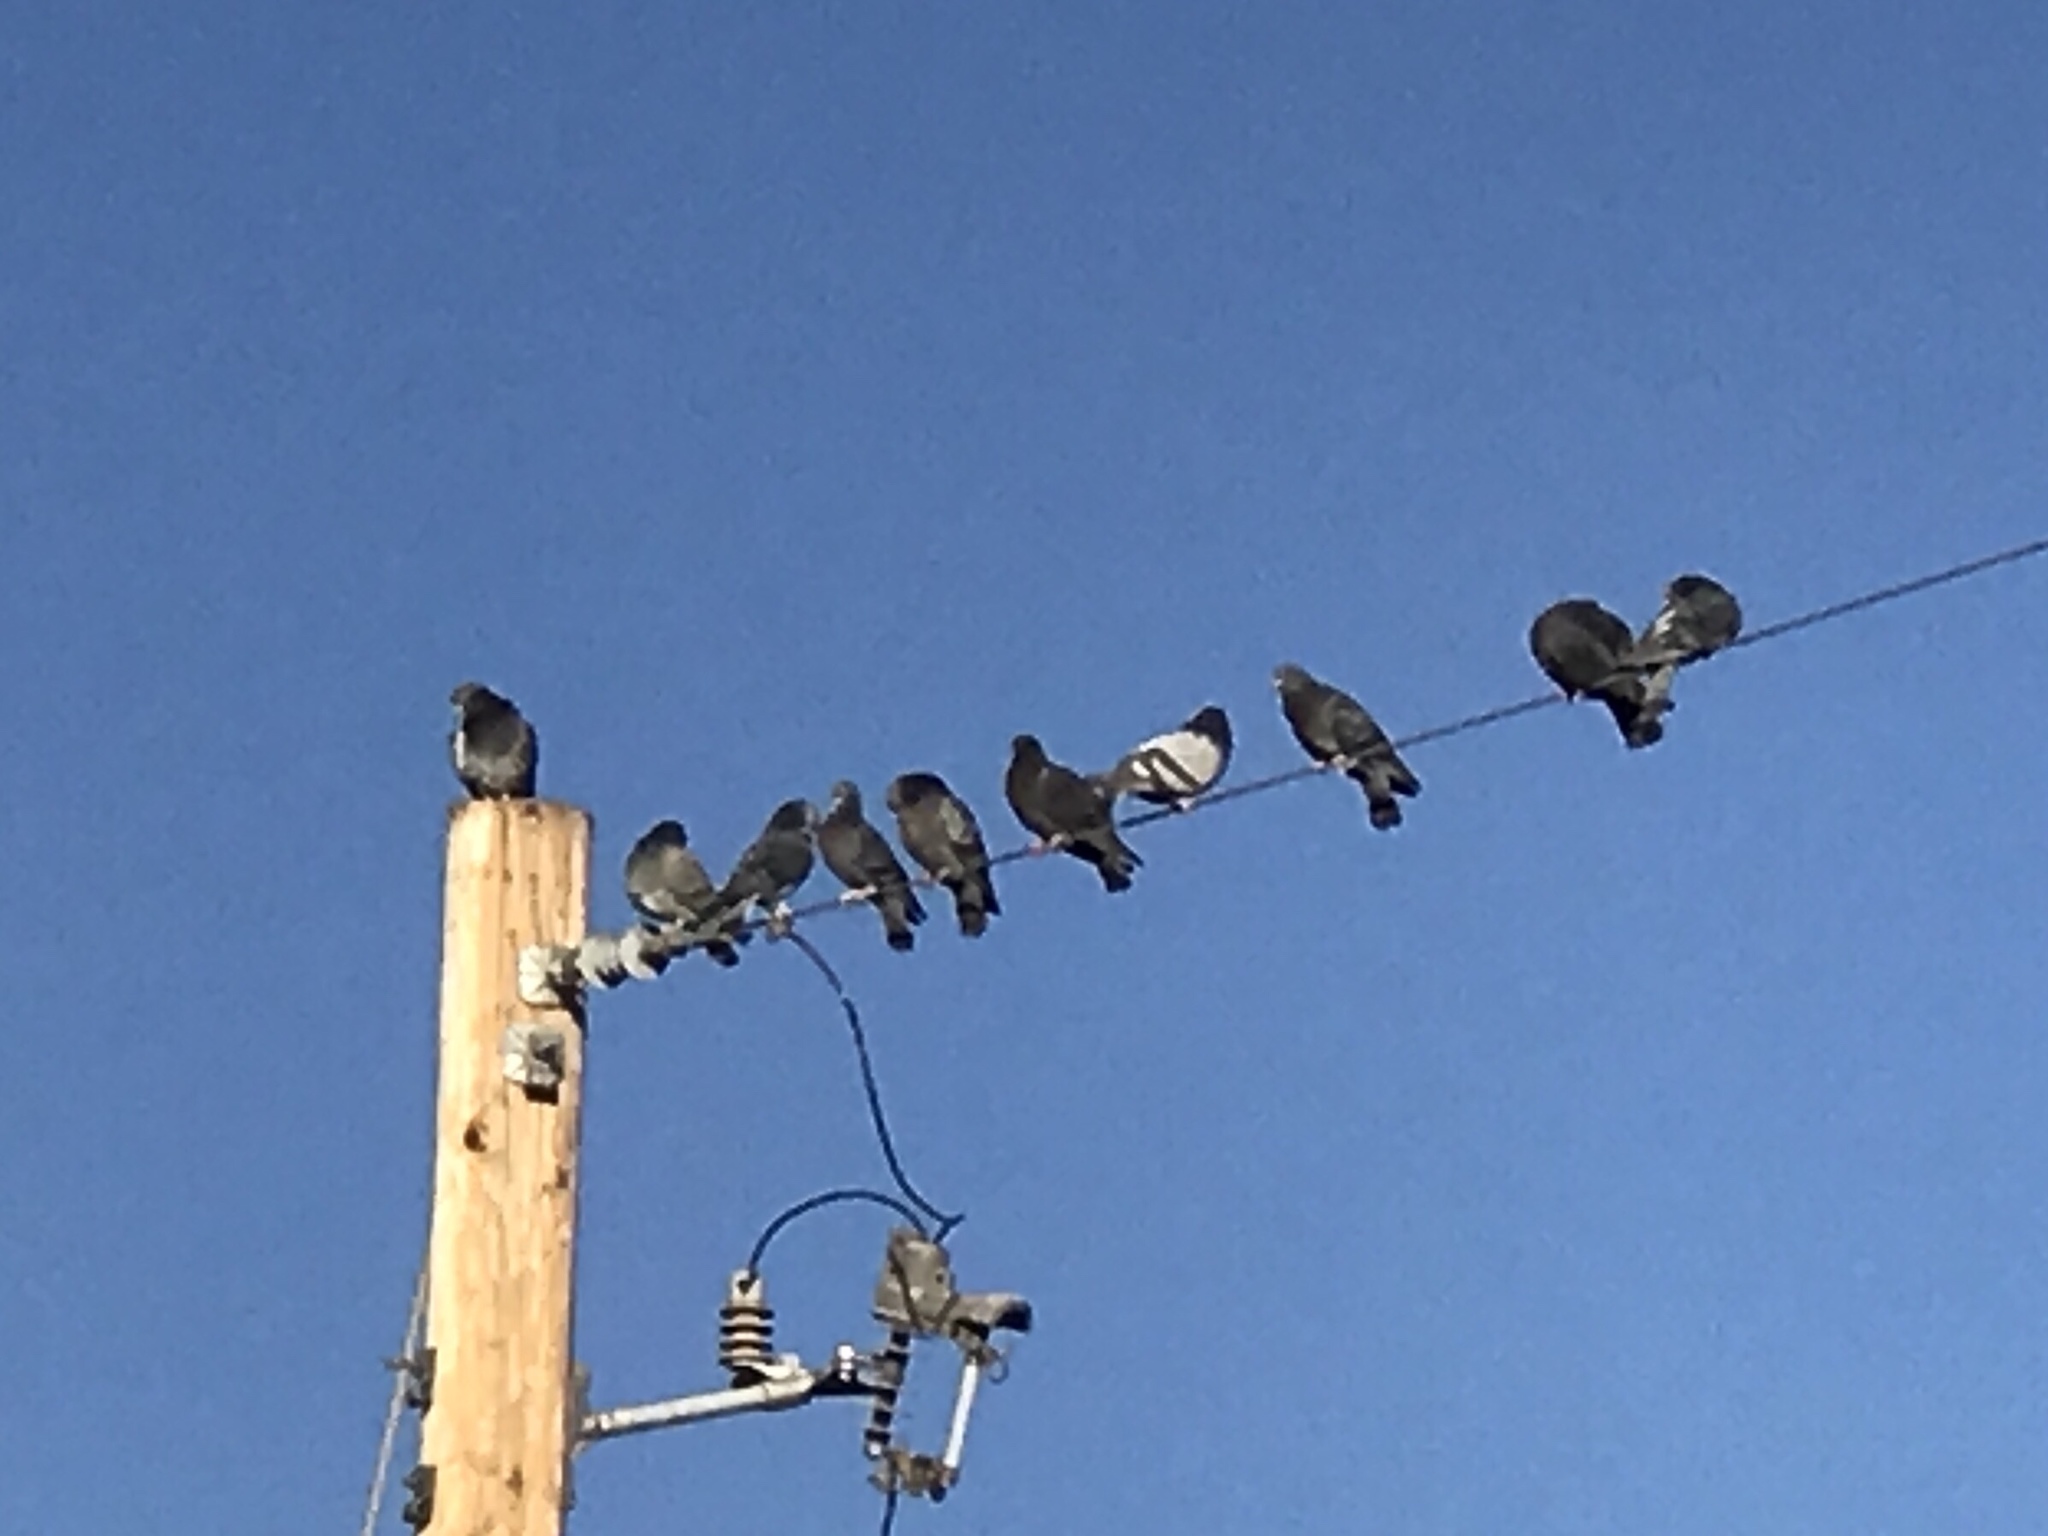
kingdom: Animalia
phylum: Chordata
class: Aves
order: Columbiformes
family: Columbidae
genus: Columba
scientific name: Columba livia
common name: Rock pigeon
